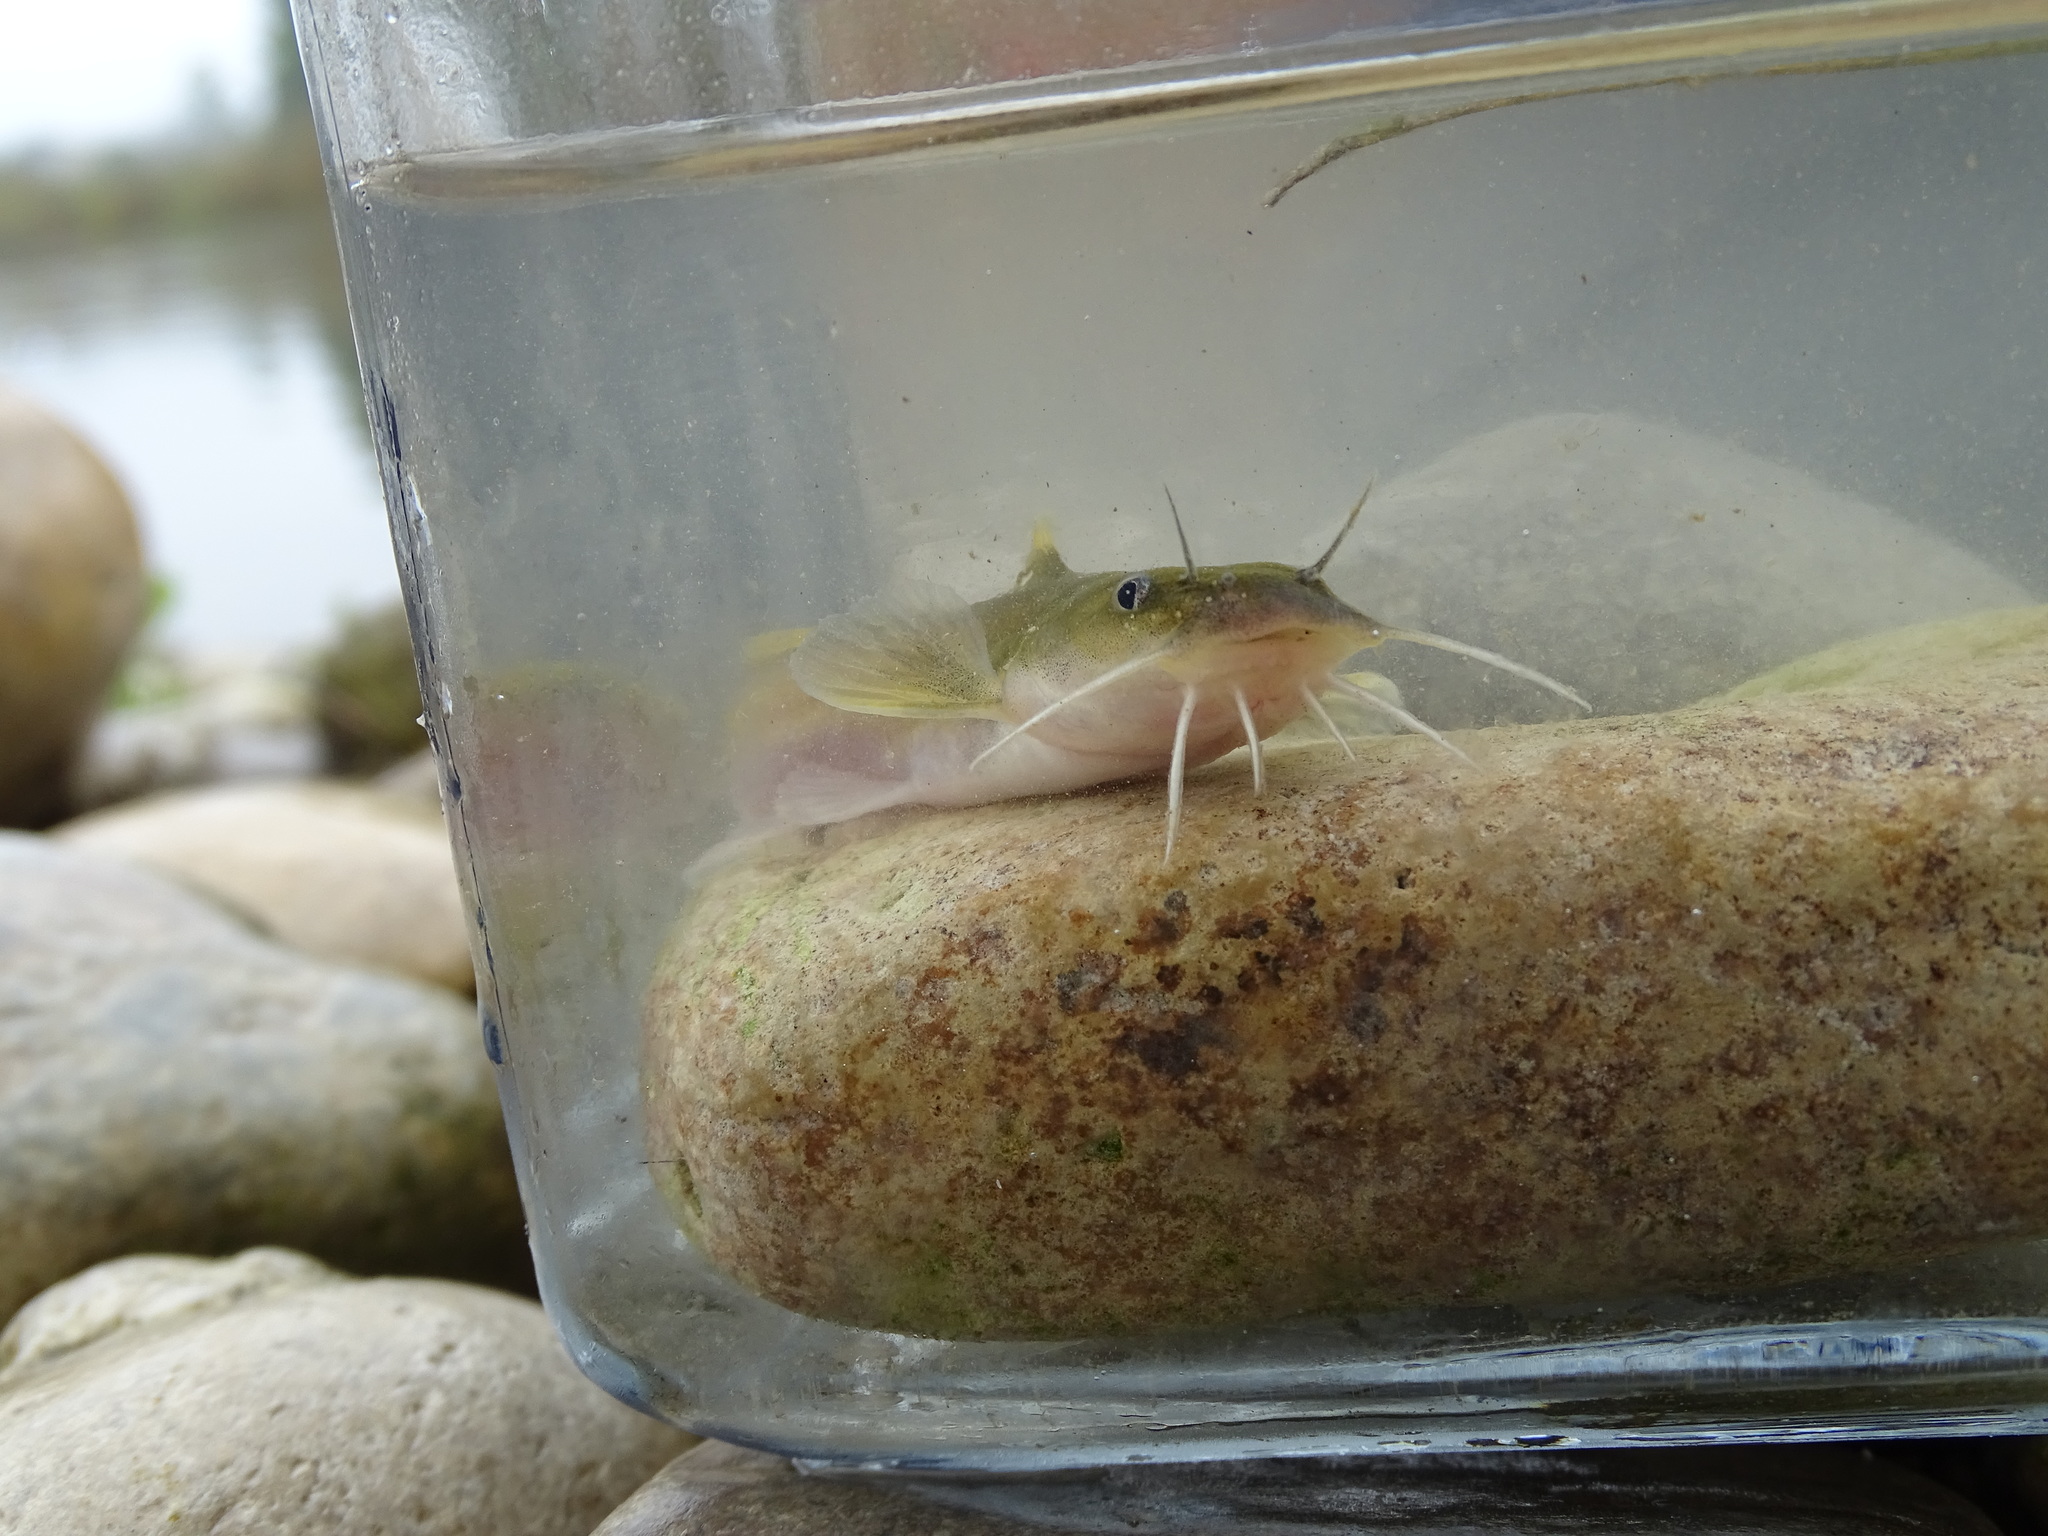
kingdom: Animalia
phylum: Chordata
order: Siluriformes
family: Ictaluridae
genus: Noturus
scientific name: Noturus flavus
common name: Stonecat
